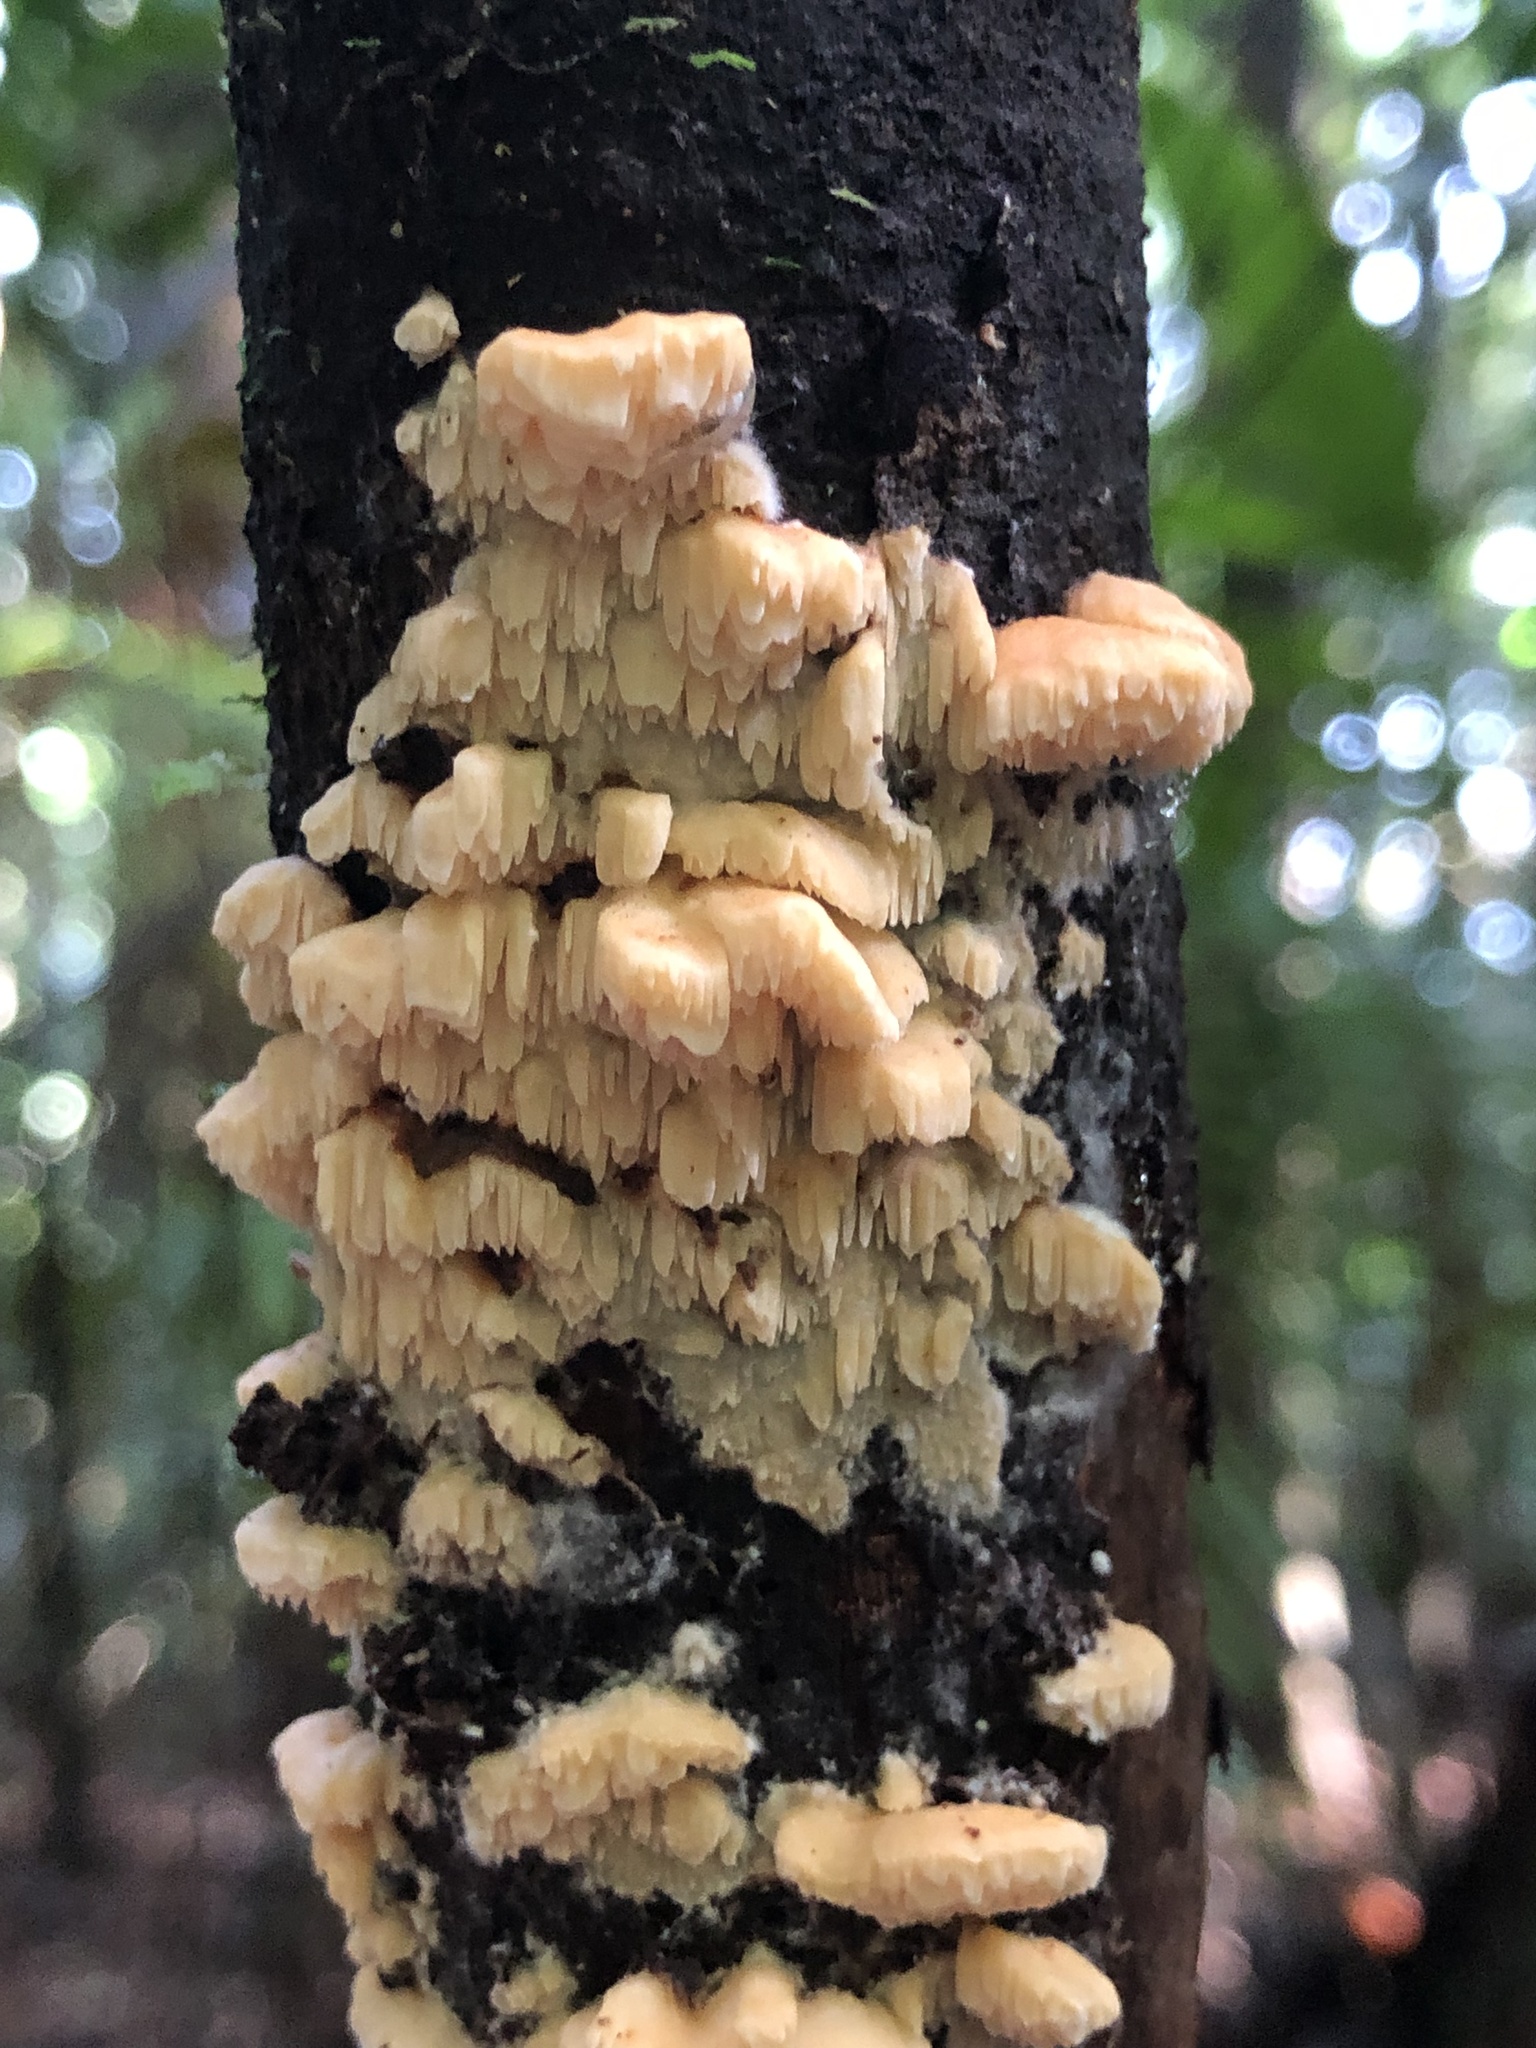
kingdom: Fungi
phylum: Basidiomycota
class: Agaricomycetes
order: Polyporales
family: Cerrenaceae
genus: Cerrena
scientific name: Cerrena zonata
